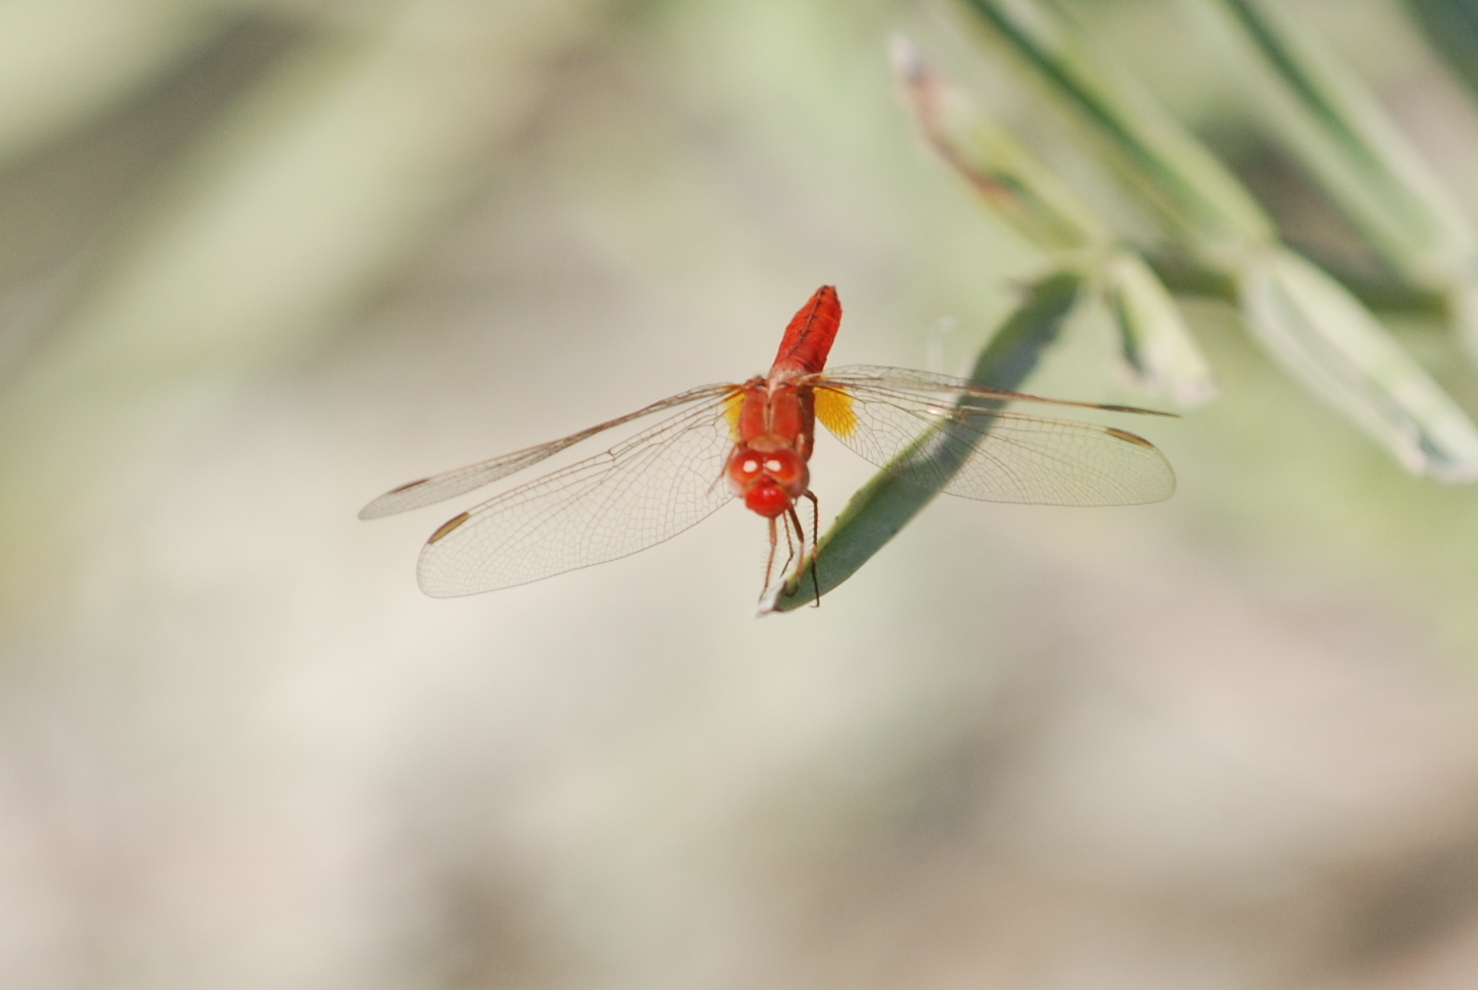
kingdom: Animalia
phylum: Arthropoda
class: Insecta
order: Odonata
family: Libellulidae
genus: Crocothemis
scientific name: Crocothemis erythraea
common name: Scarlet dragonfly
